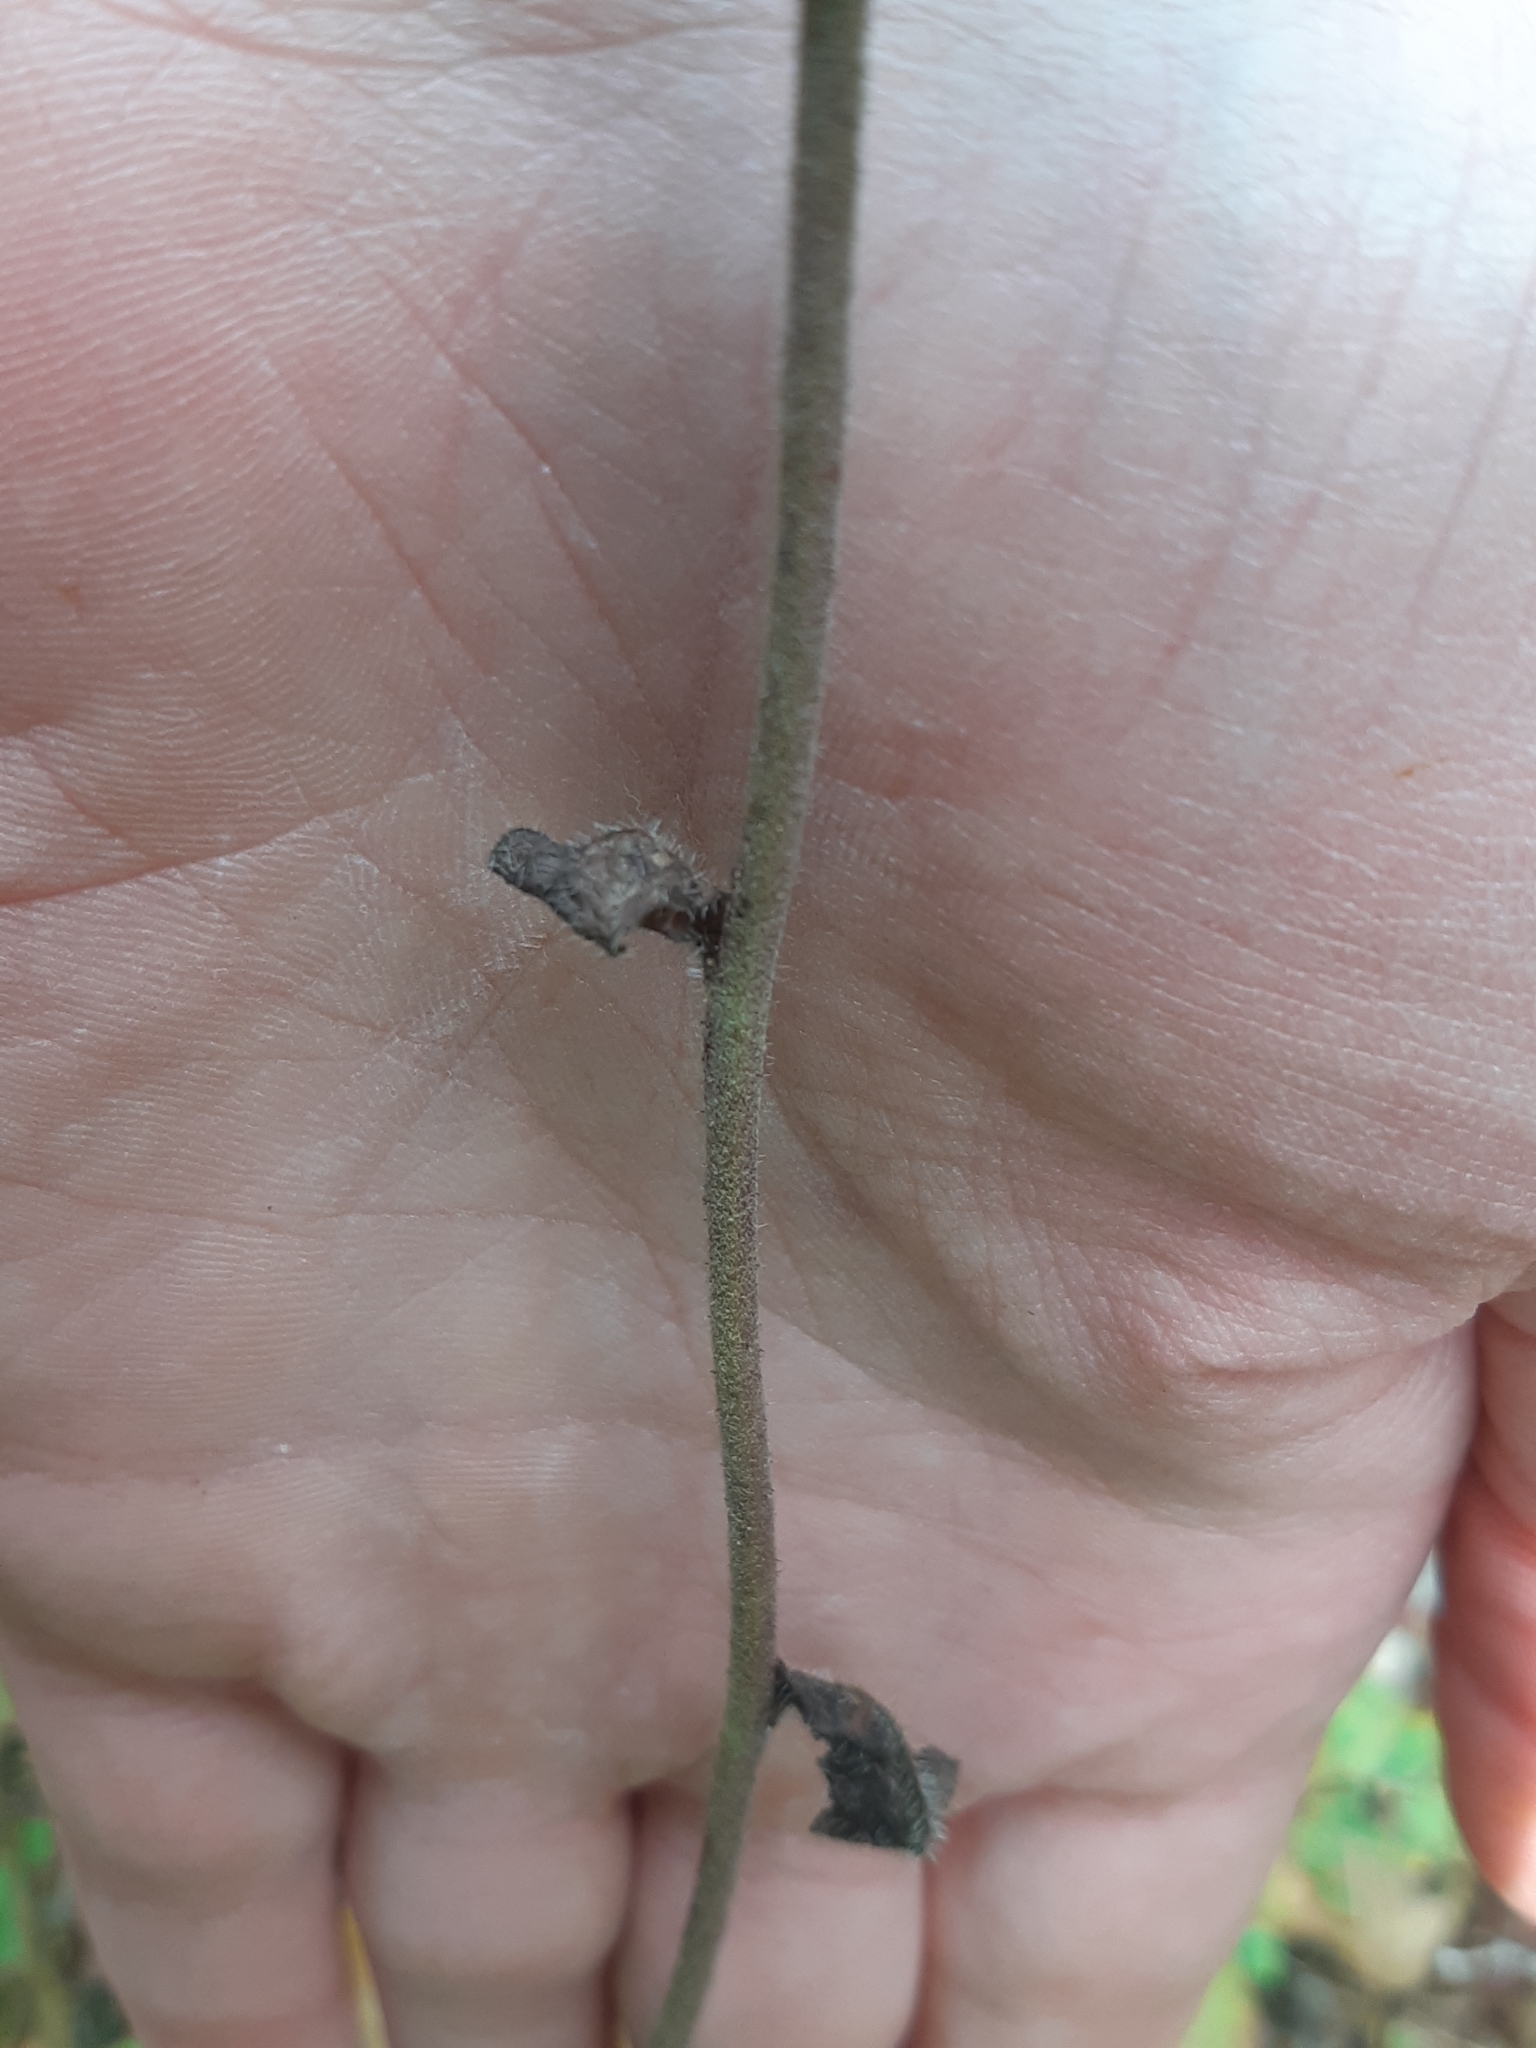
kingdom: Plantae
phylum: Tracheophyta
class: Magnoliopsida
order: Asterales
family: Asteraceae
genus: Hieracium
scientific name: Hieracium scabrum
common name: Rough hawkweed
